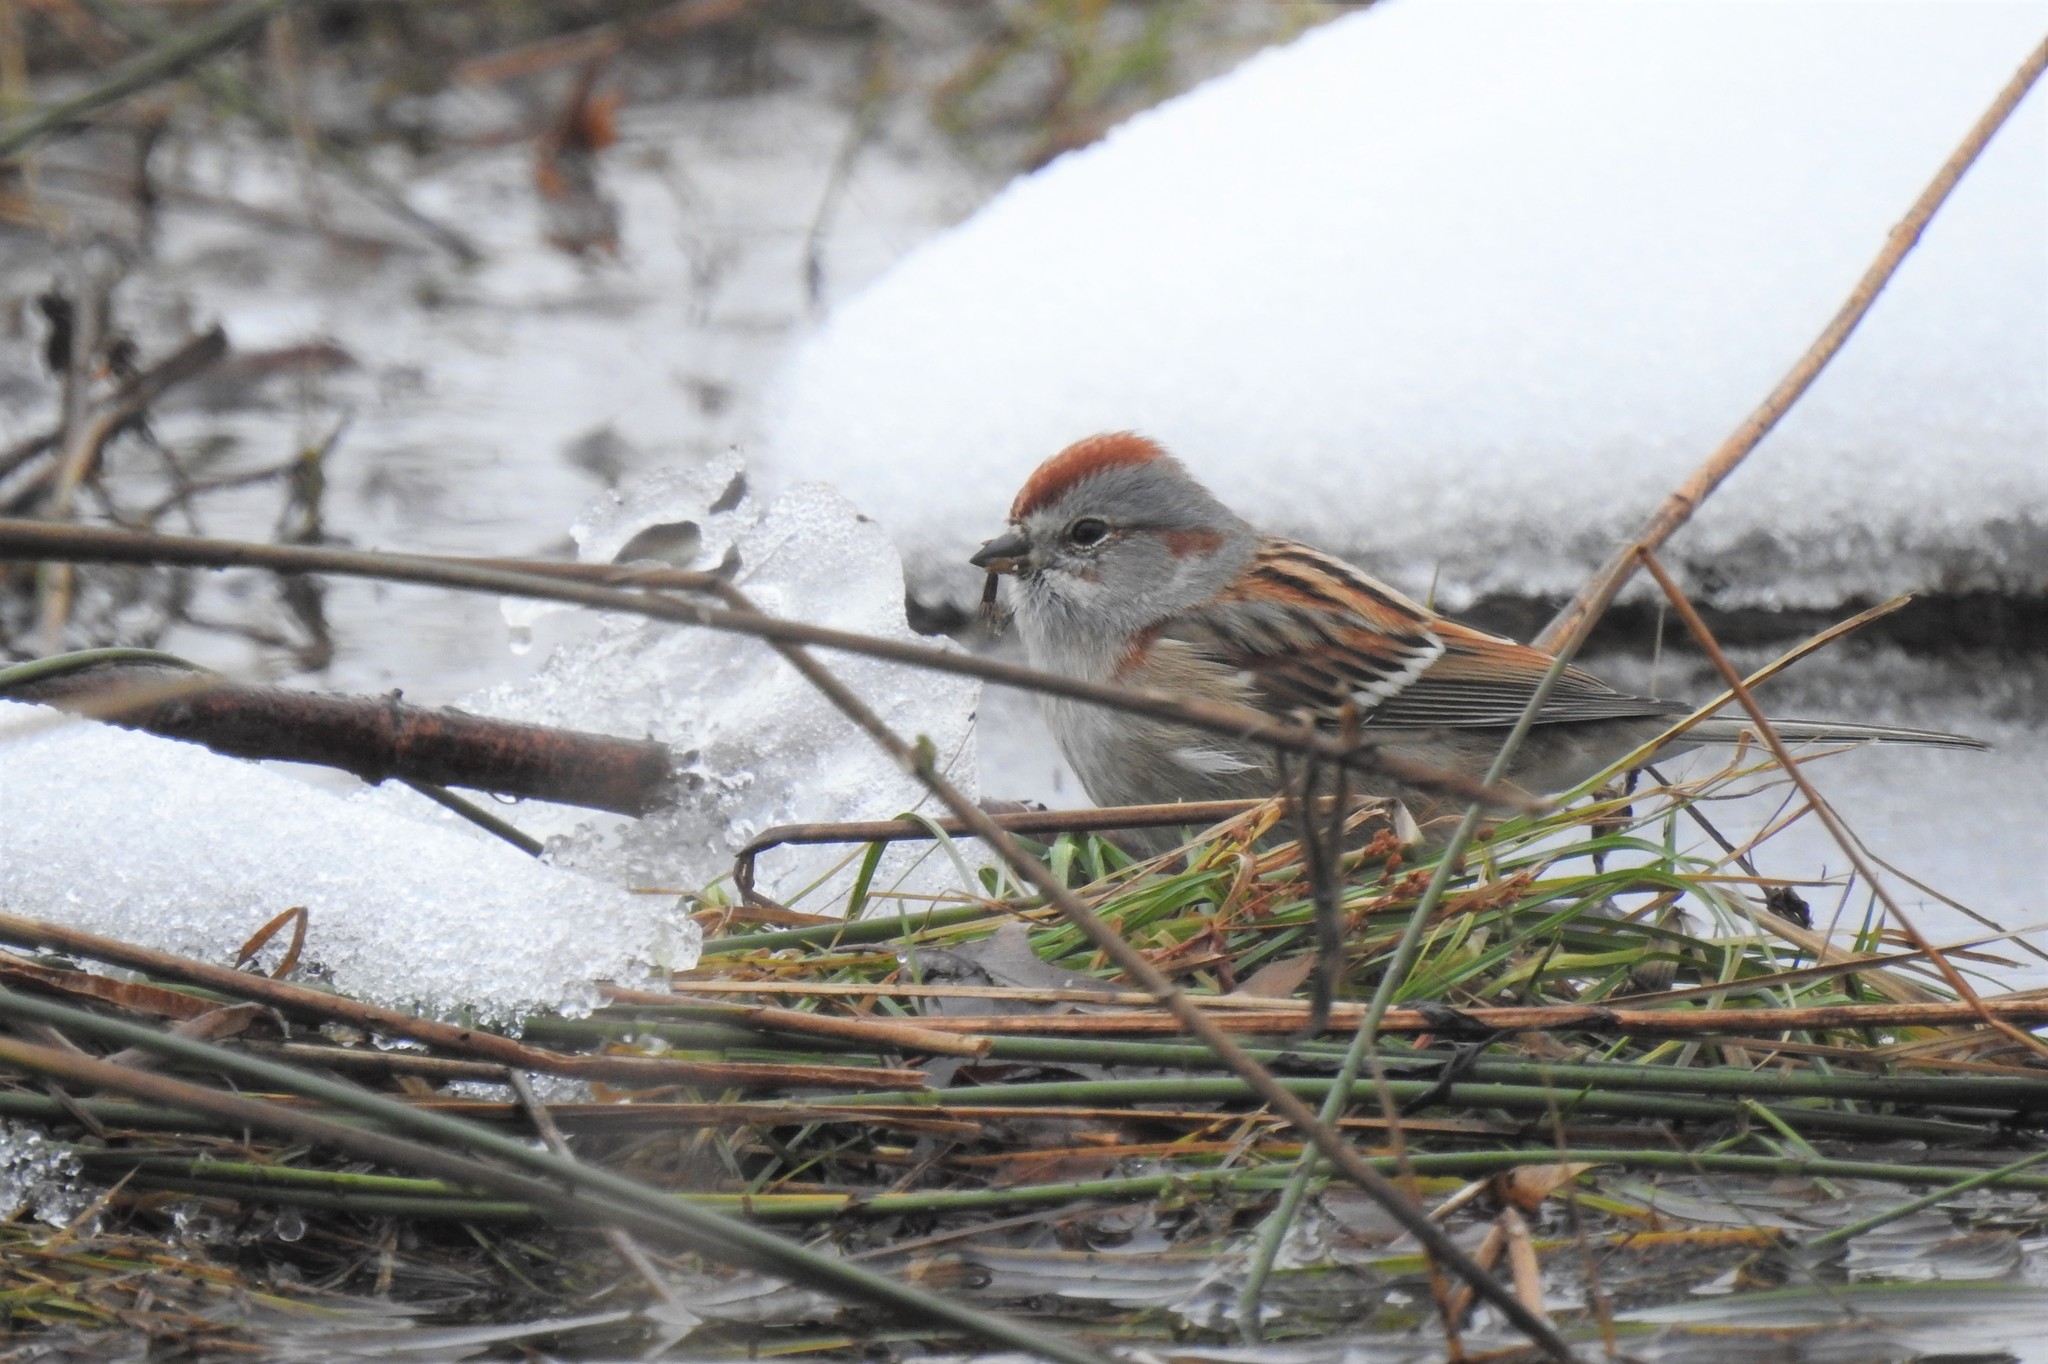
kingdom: Animalia
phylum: Chordata
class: Aves
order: Passeriformes
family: Passerellidae
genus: Spizelloides
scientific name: Spizelloides arborea
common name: American tree sparrow
